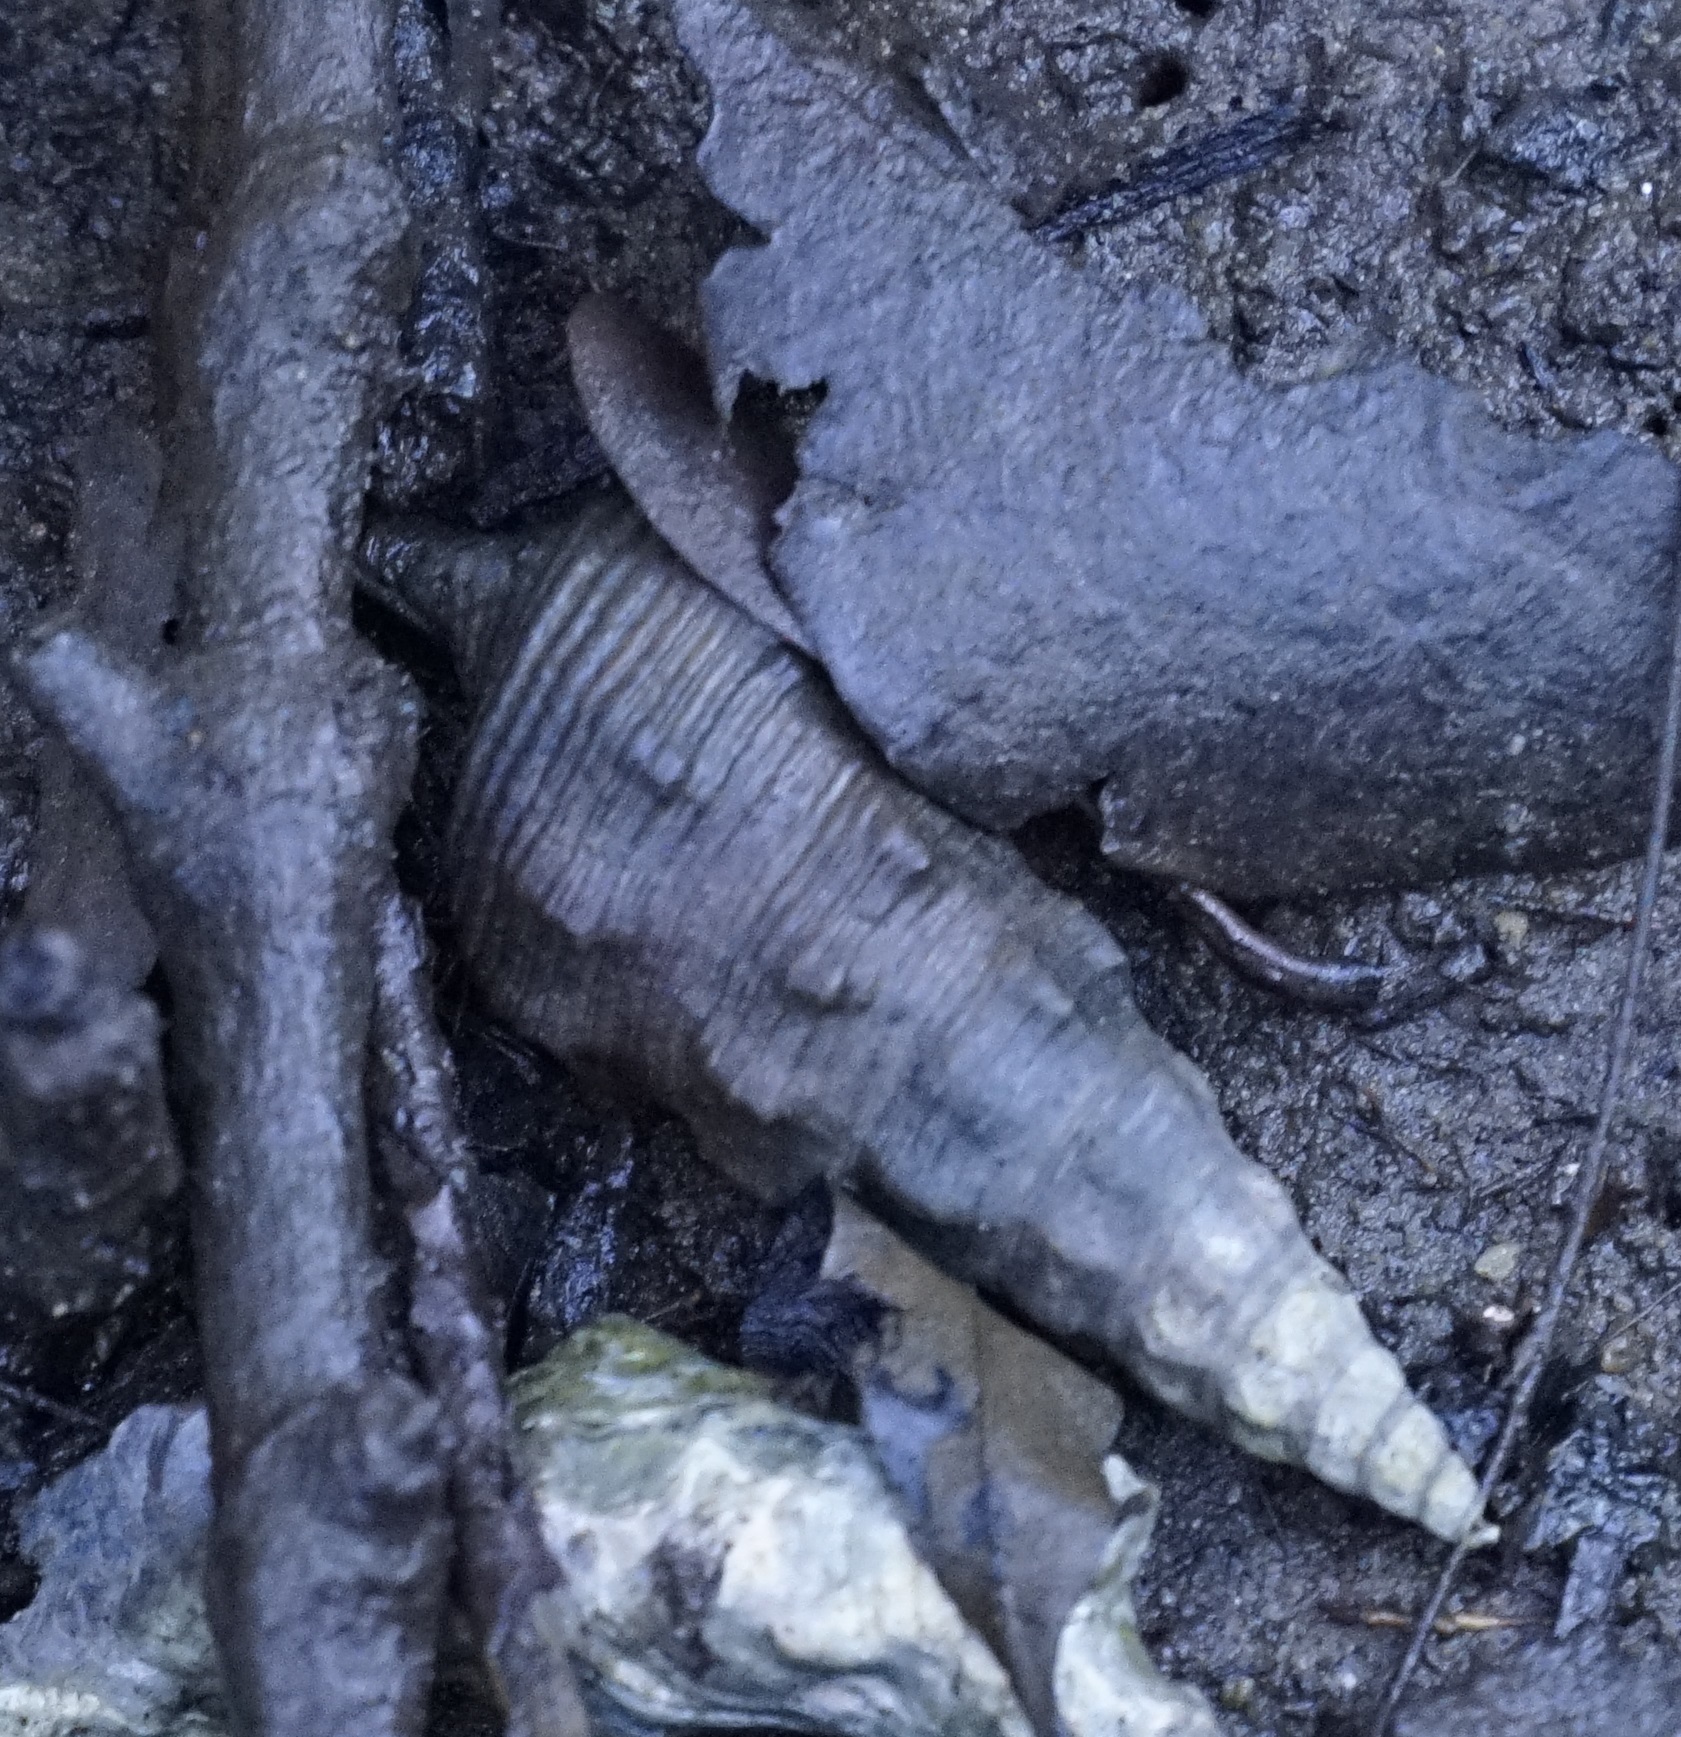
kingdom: Animalia
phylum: Mollusca
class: Gastropoda
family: Batillariidae
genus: Pyrazus
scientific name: Pyrazus ebeninus
